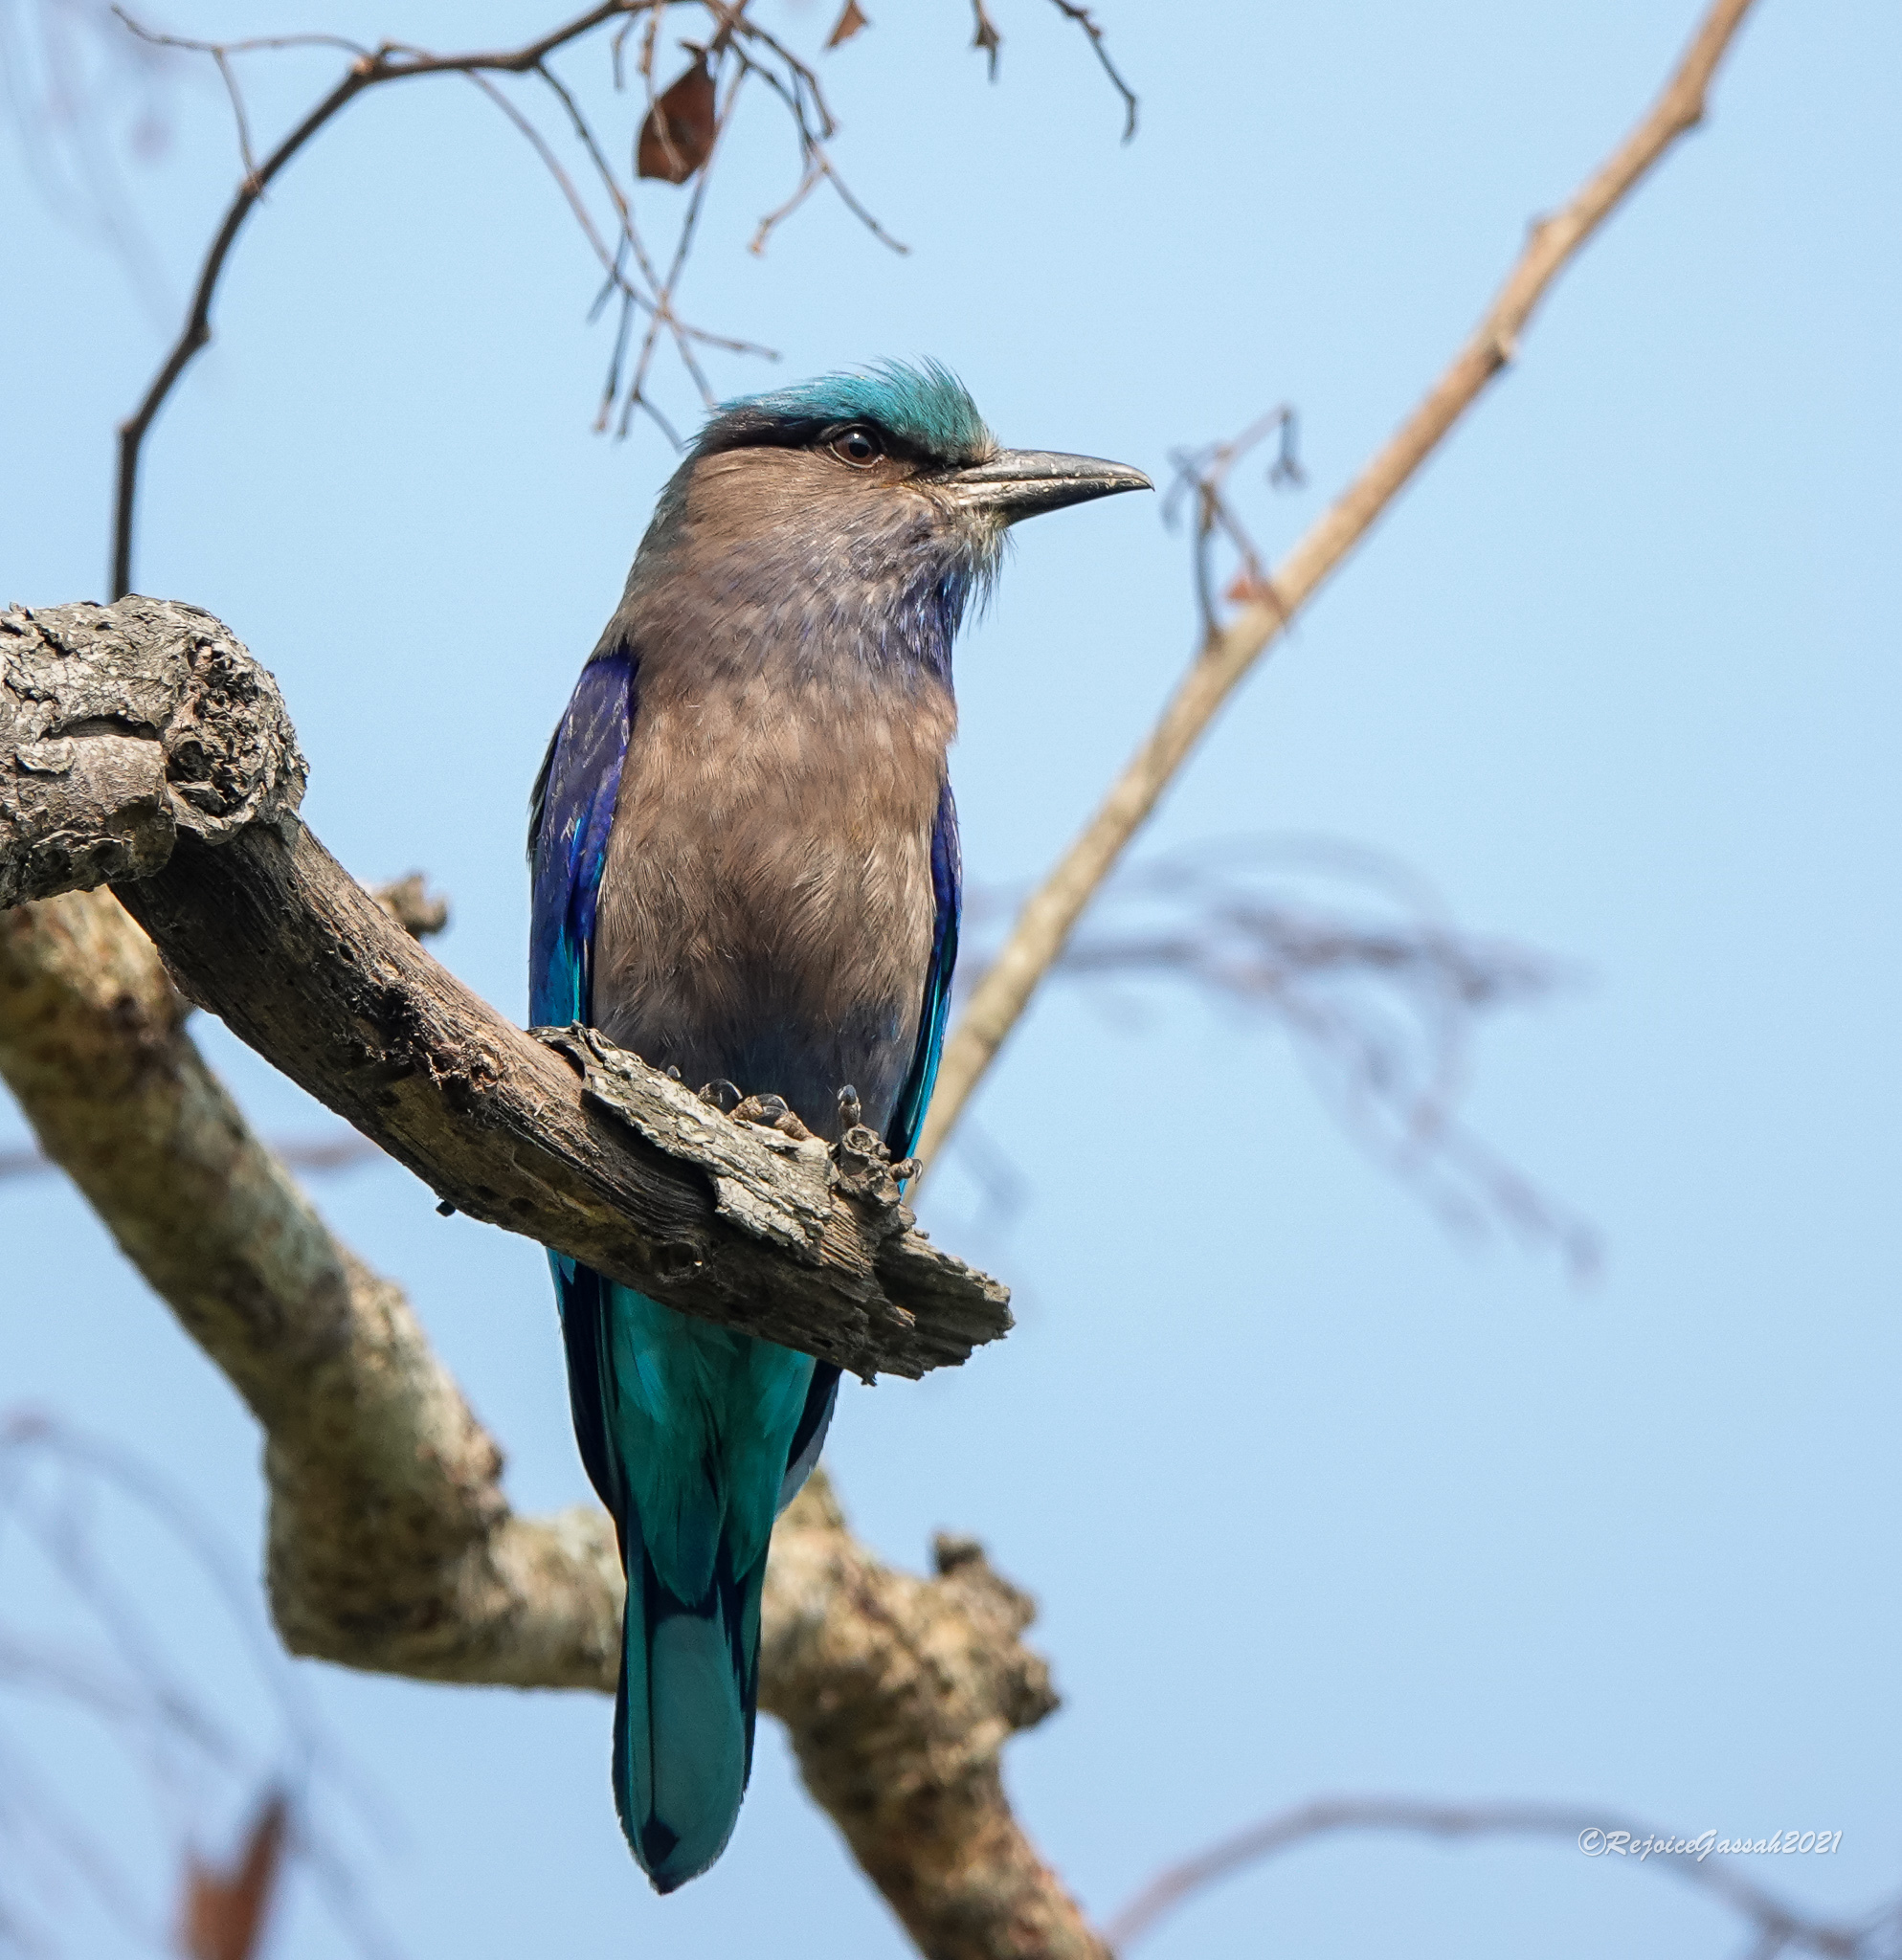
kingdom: Animalia
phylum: Chordata
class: Aves
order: Coraciiformes
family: Coraciidae
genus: Coracias
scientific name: Coracias affinis
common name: Indochinese roller
